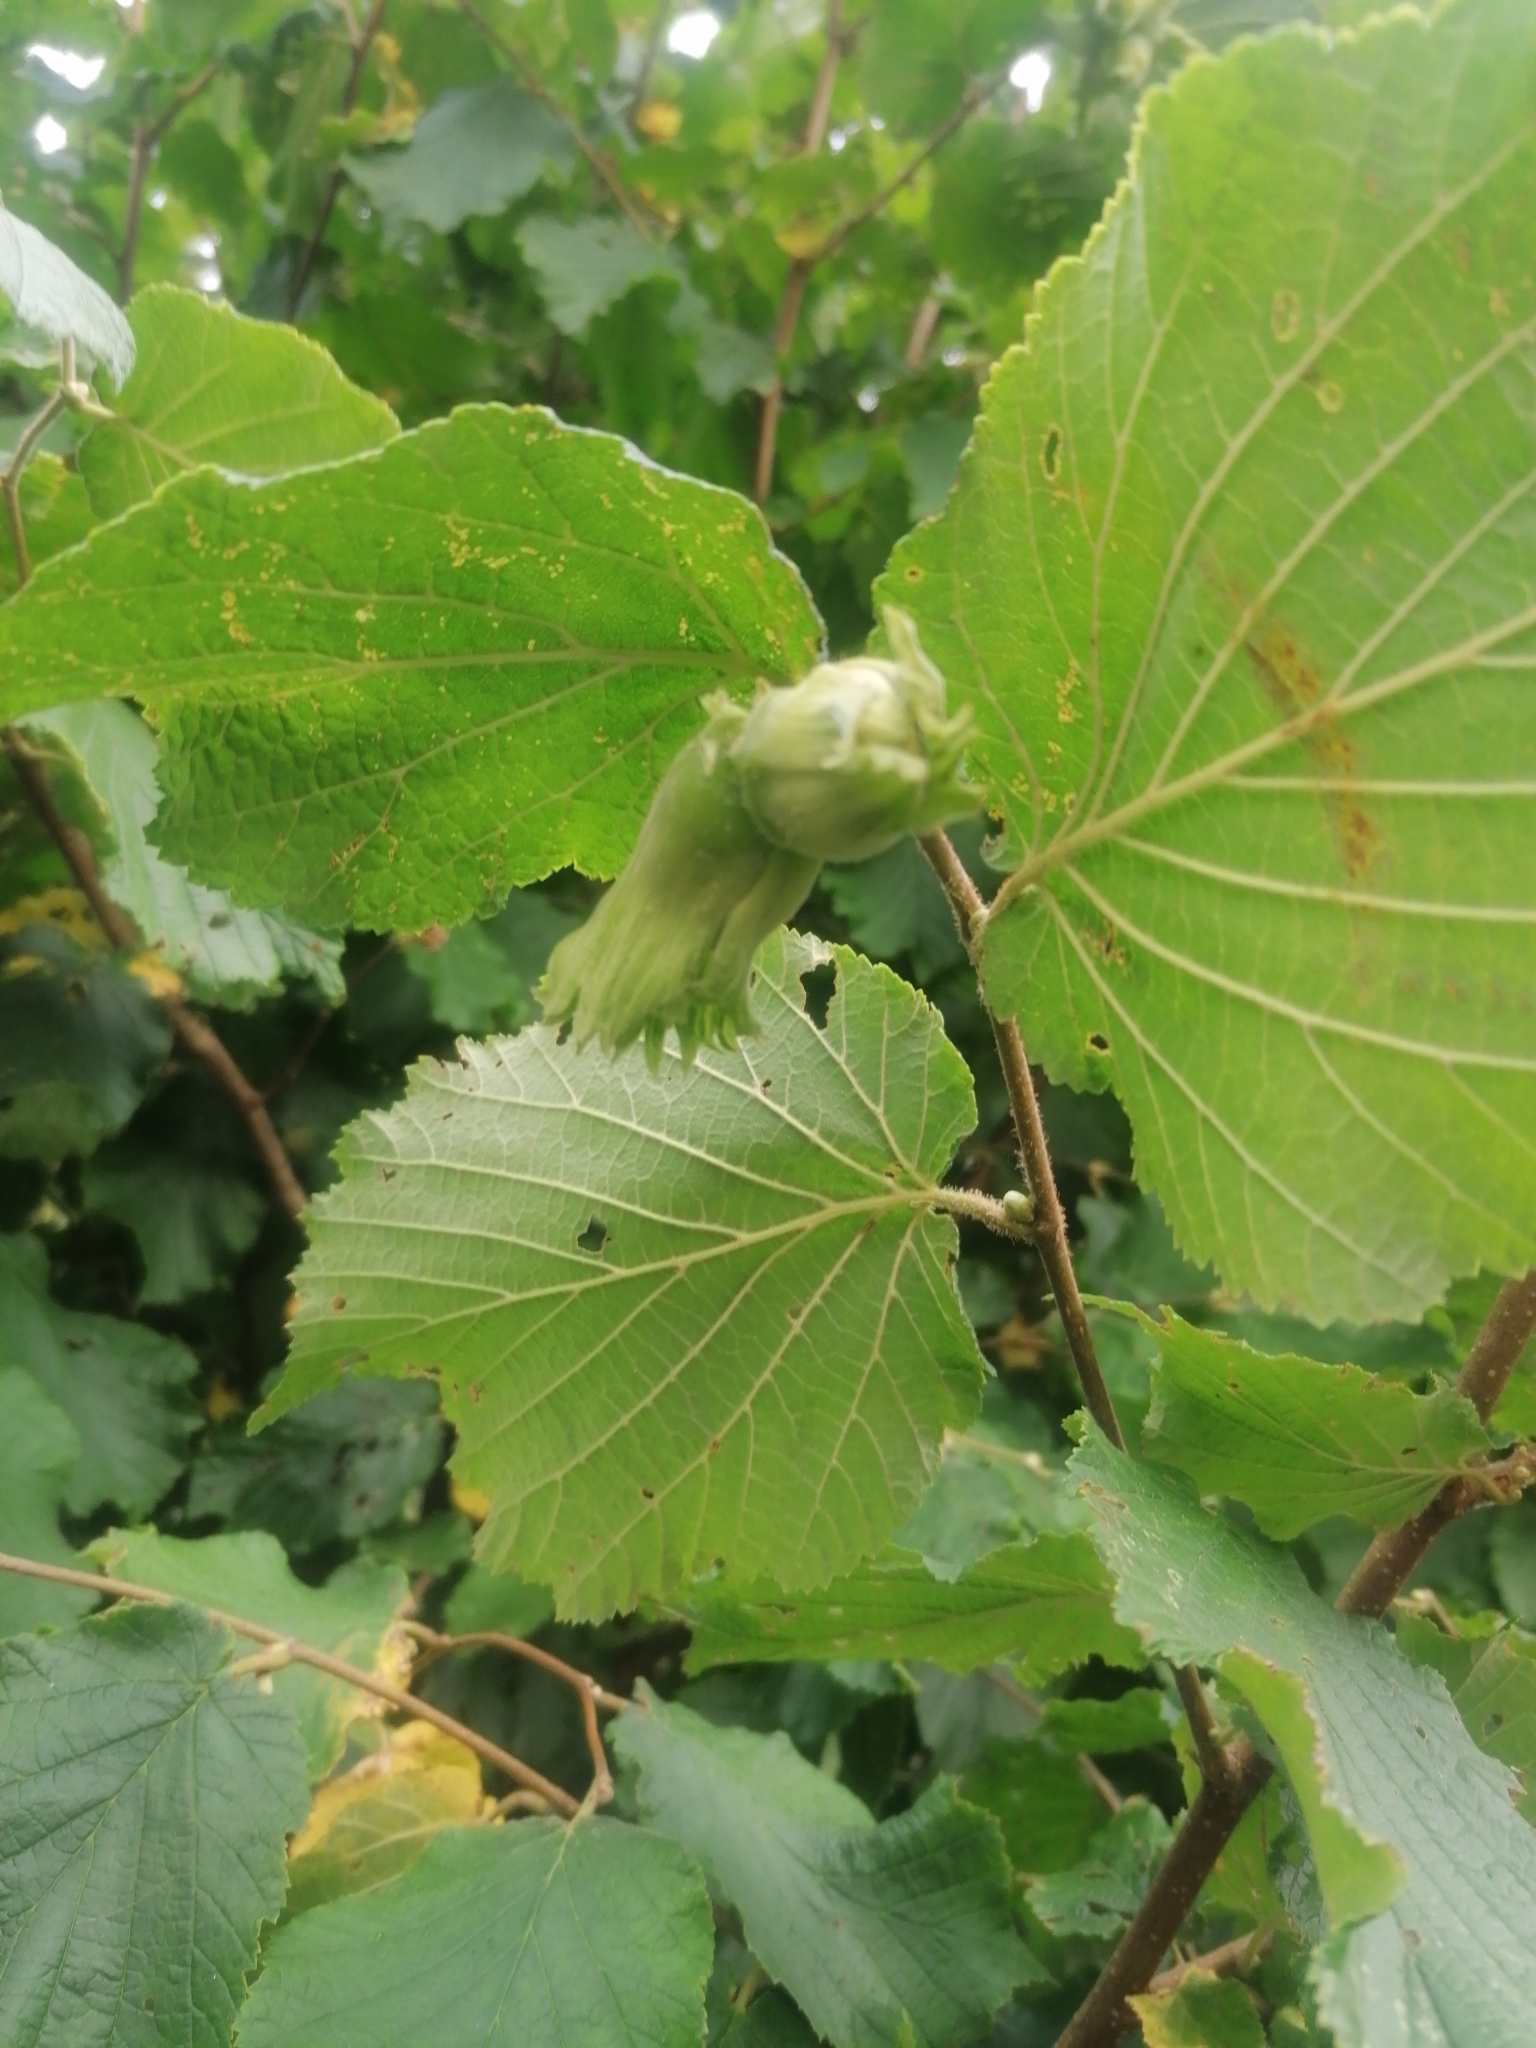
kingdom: Plantae
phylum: Tracheophyta
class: Magnoliopsida
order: Fagales
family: Betulaceae
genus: Corylus
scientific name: Corylus avellana
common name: European hazel
